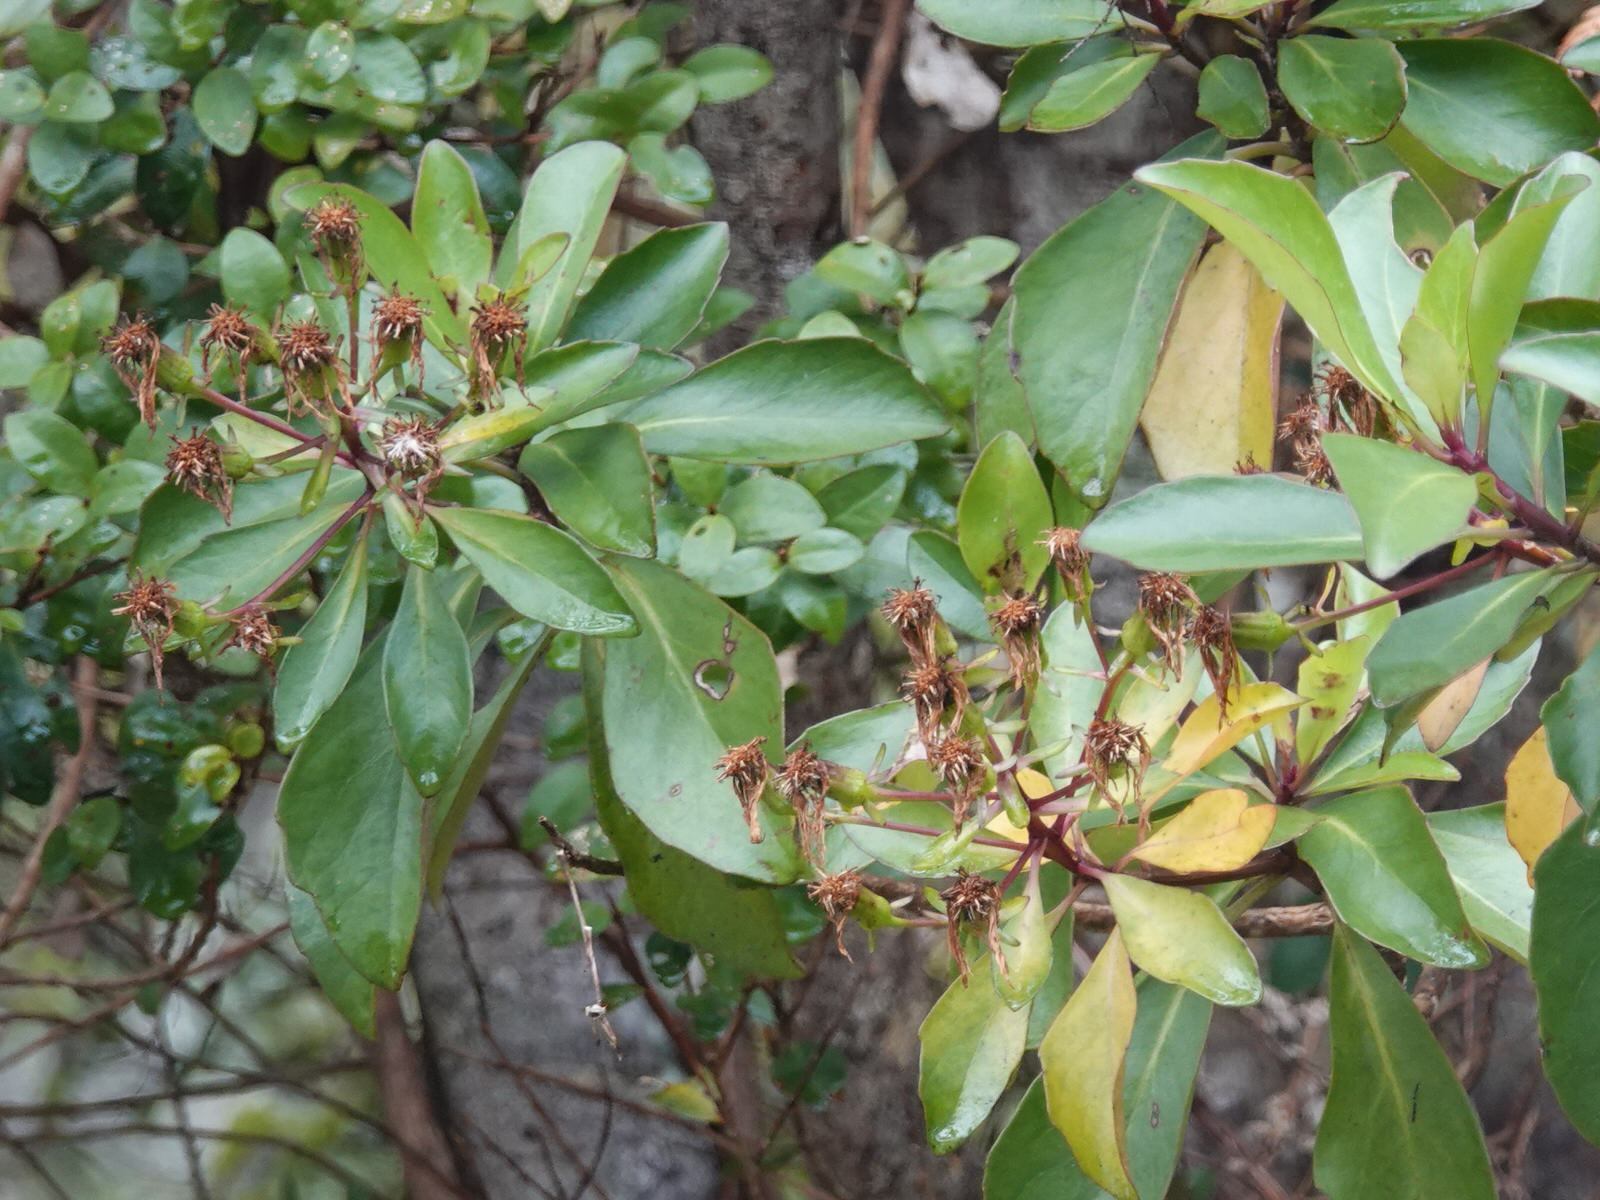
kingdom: Plantae
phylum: Tracheophyta
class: Magnoliopsida
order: Asterales
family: Asteraceae
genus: Brachyglottis
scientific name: Brachyglottis kirkii
